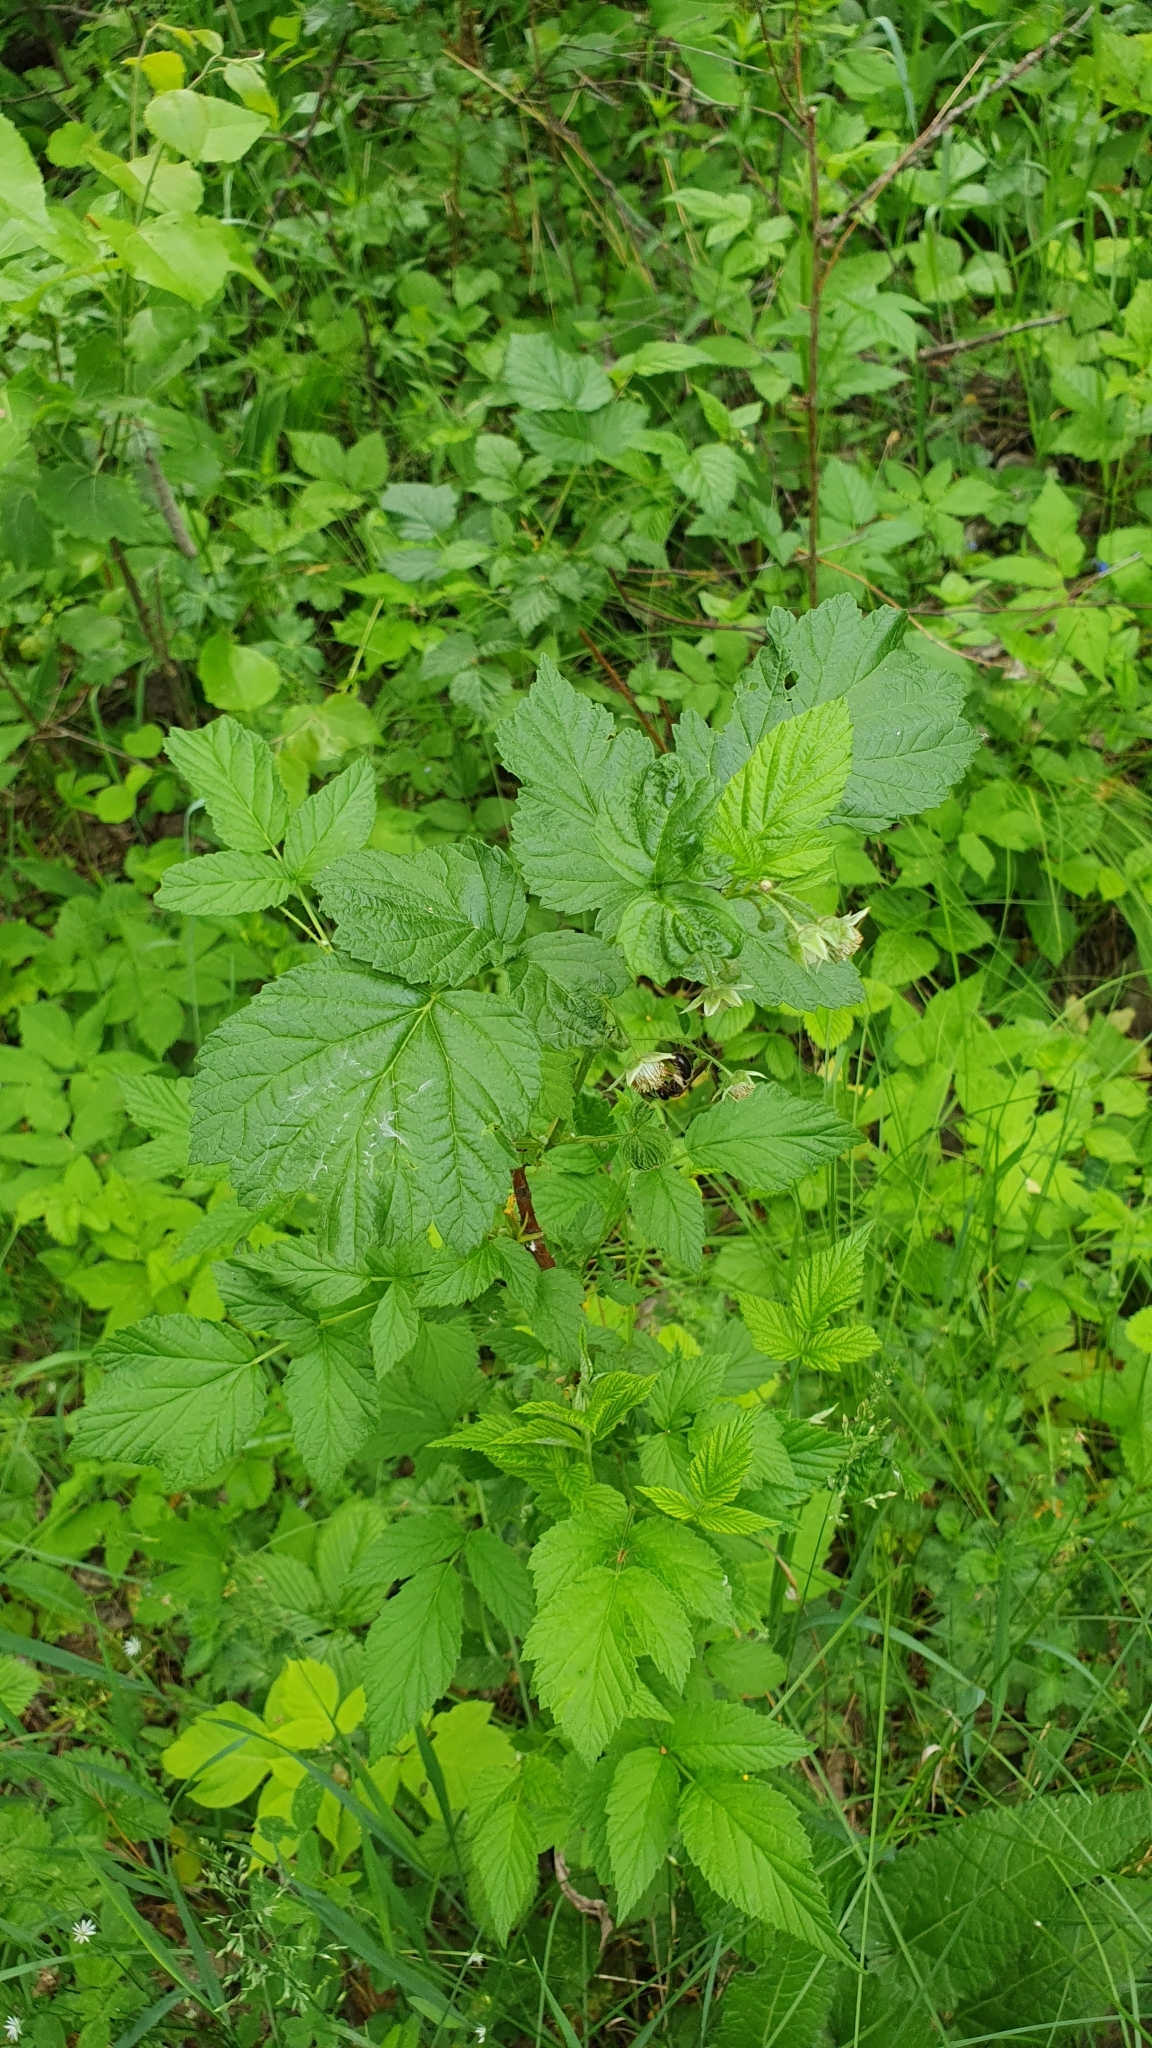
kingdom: Plantae
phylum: Tracheophyta
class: Magnoliopsida
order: Rosales
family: Rosaceae
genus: Rubus
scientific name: Rubus idaeus
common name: Raspberry
